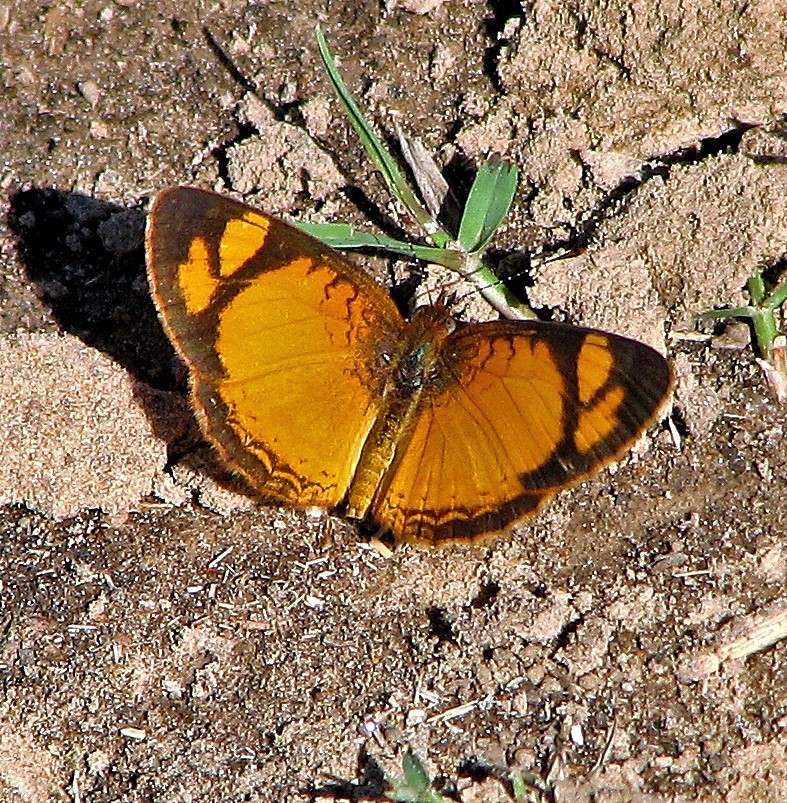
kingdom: Animalia
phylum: Arthropoda
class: Insecta
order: Lepidoptera
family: Nymphalidae
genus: Tegosa
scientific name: Tegosa claudina
